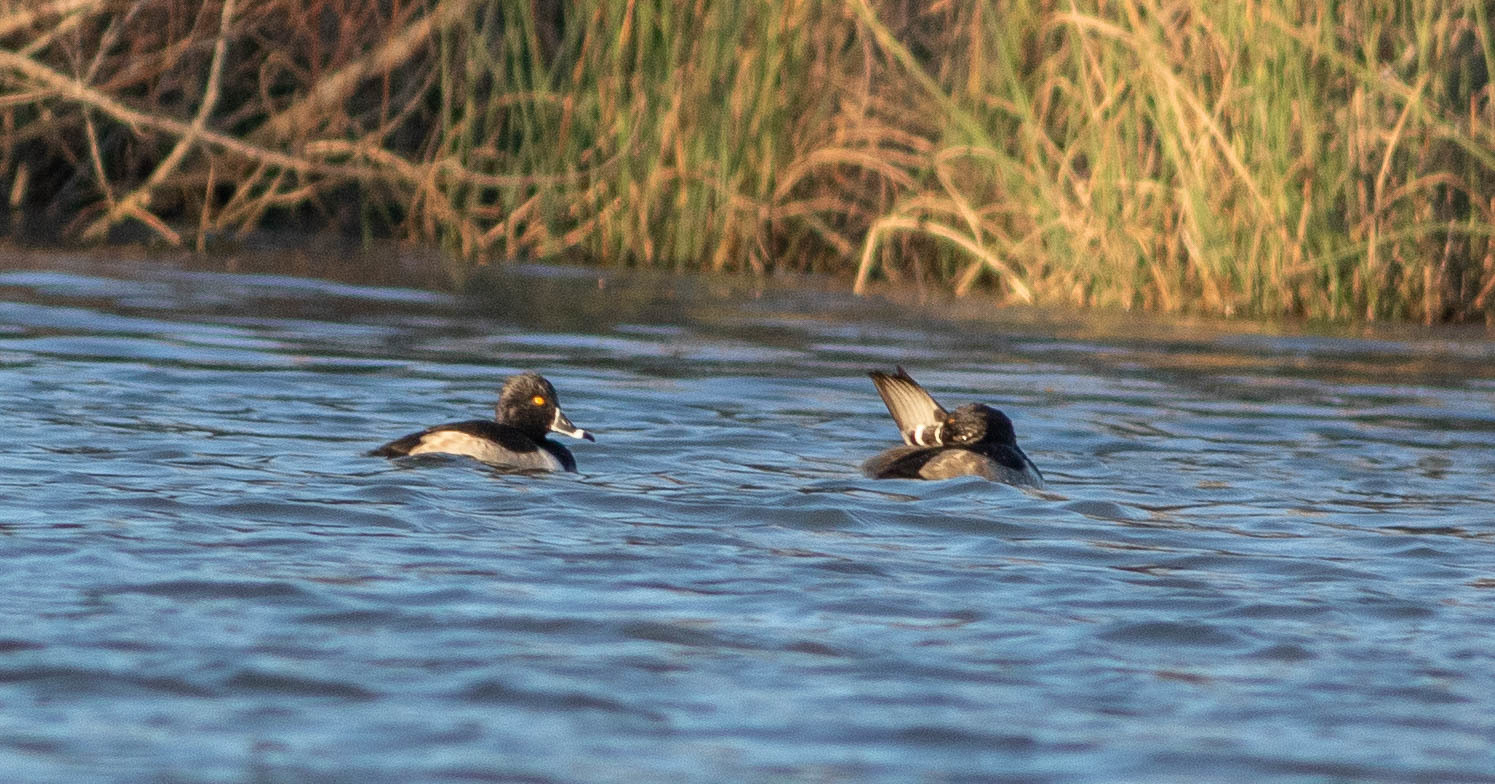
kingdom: Animalia
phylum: Chordata
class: Aves
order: Anseriformes
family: Anatidae
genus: Aythya
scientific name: Aythya collaris
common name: Ring-necked duck
